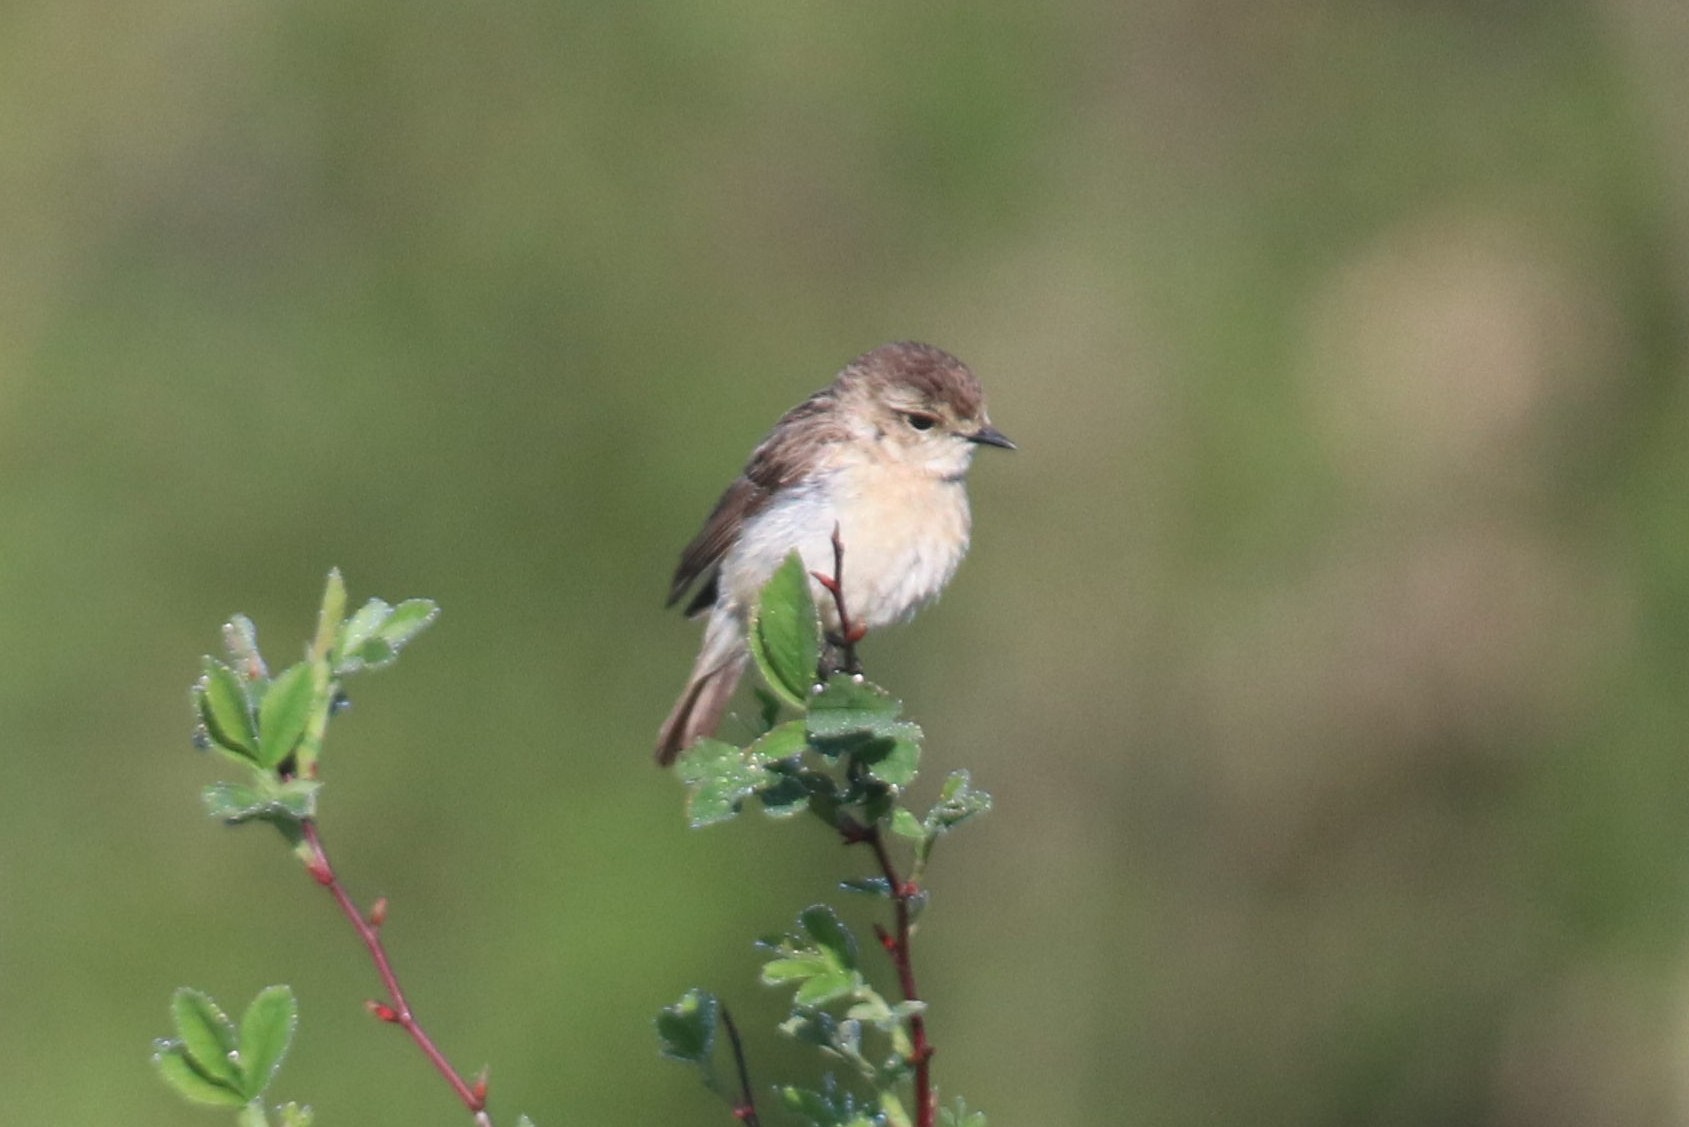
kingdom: Animalia
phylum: Chordata
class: Aves
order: Passeriformes
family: Muscicapidae
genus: Saxicola
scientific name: Saxicola maurus
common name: Siberian stonechat
